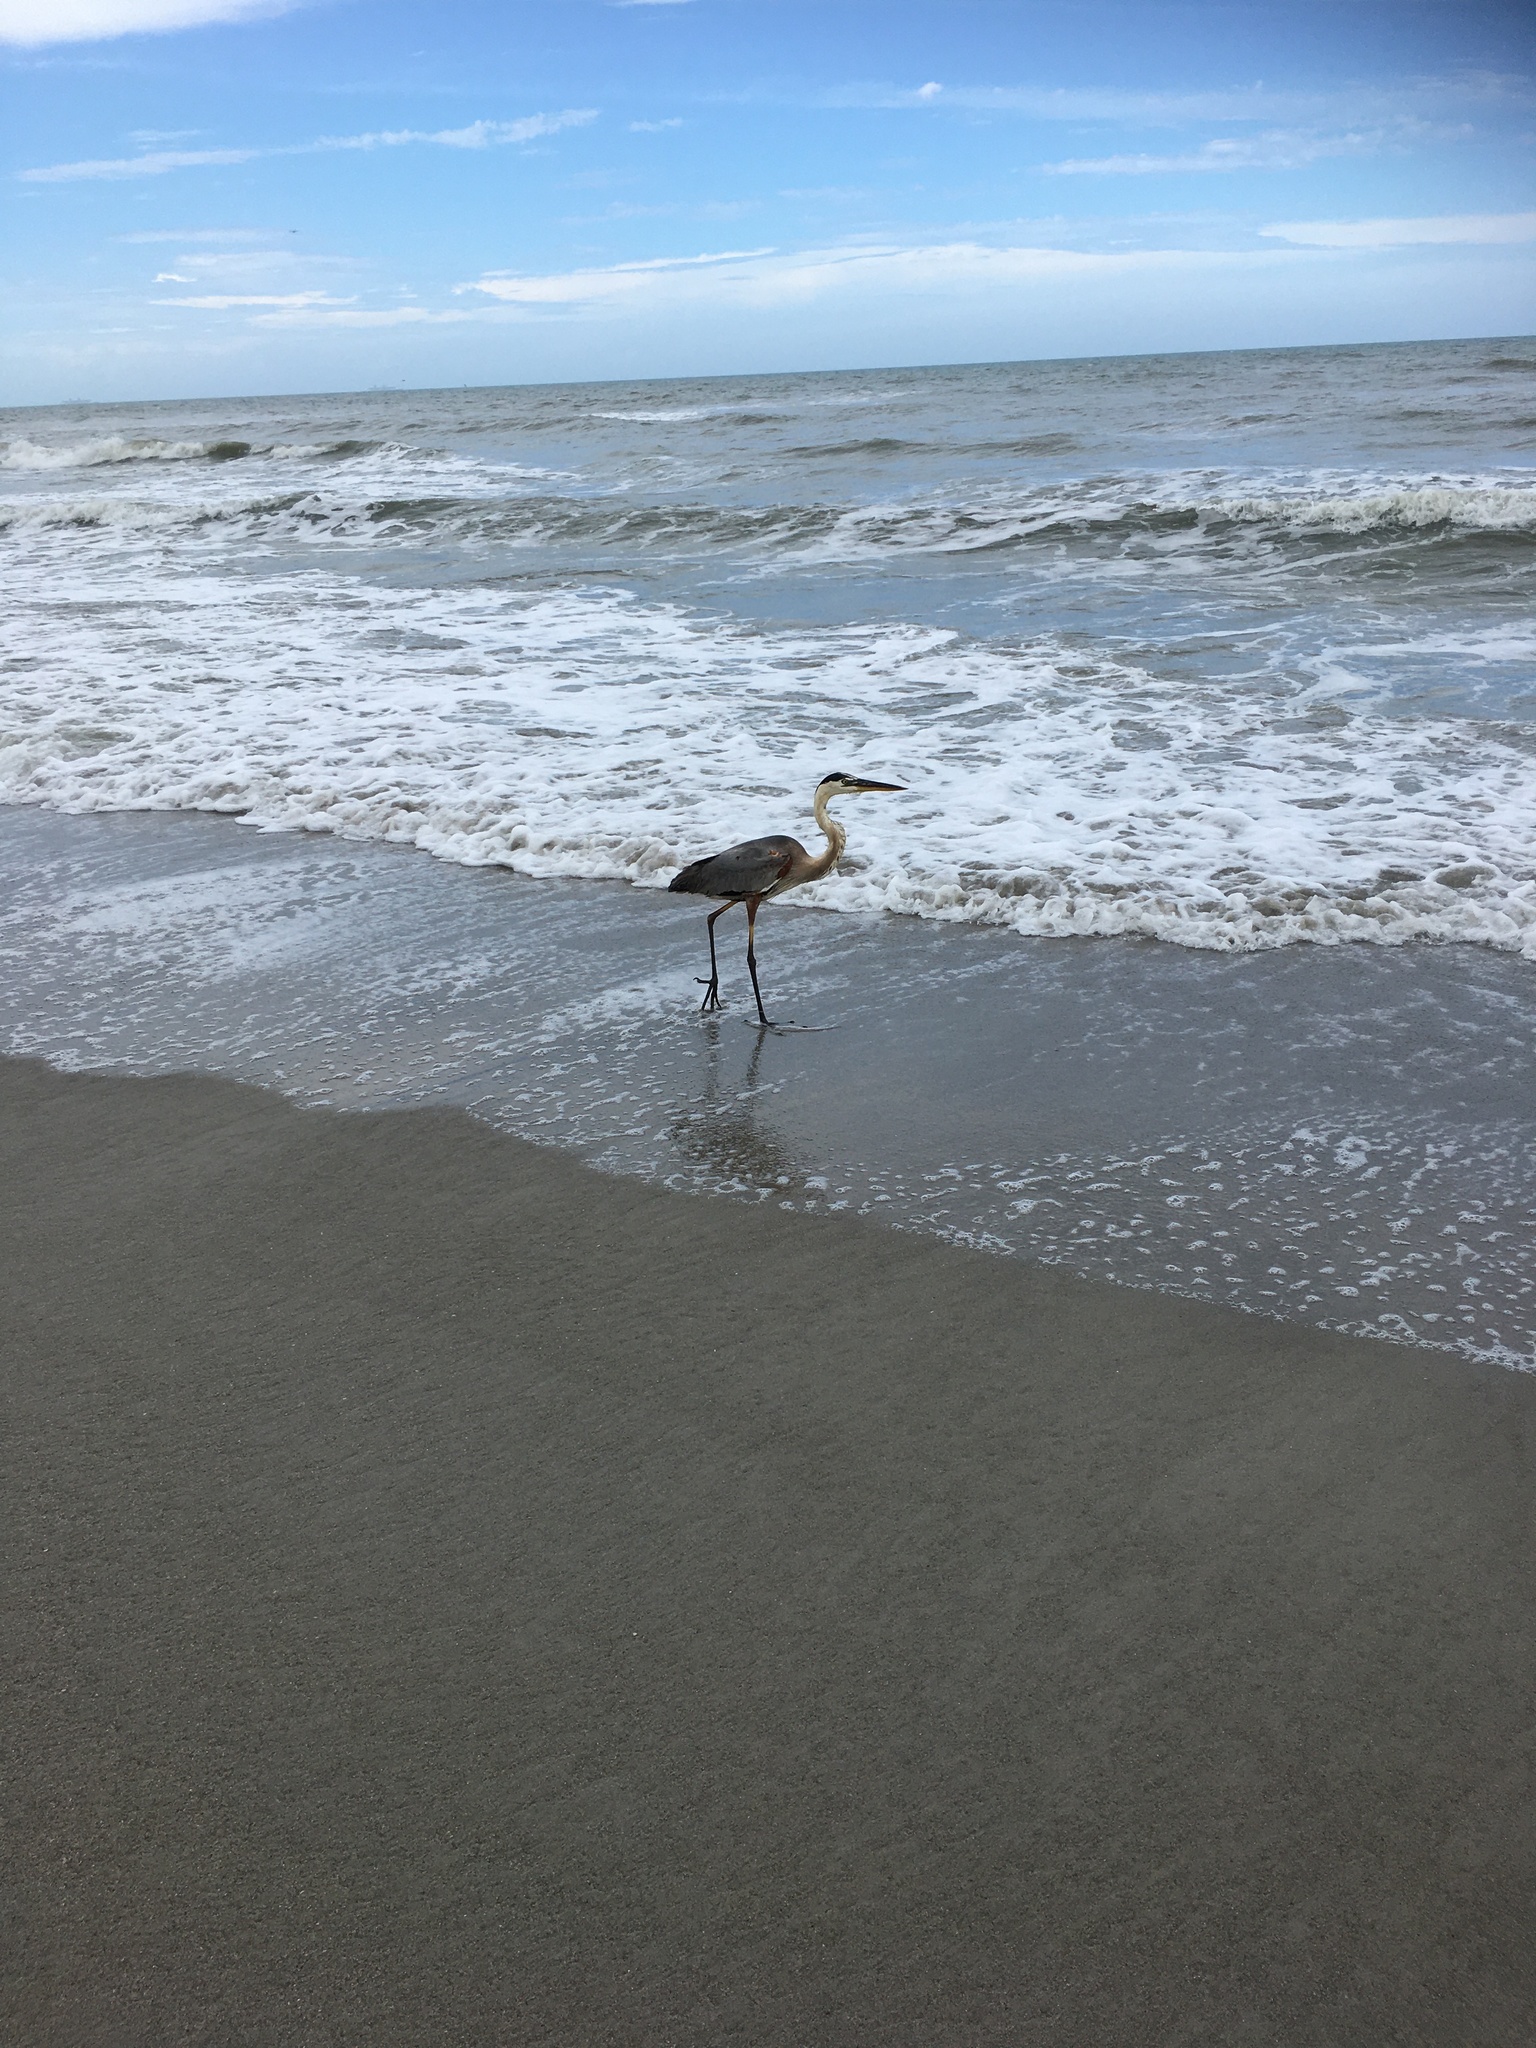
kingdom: Animalia
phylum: Chordata
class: Aves
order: Pelecaniformes
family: Ardeidae
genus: Ardea
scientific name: Ardea herodias
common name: Great blue heron
